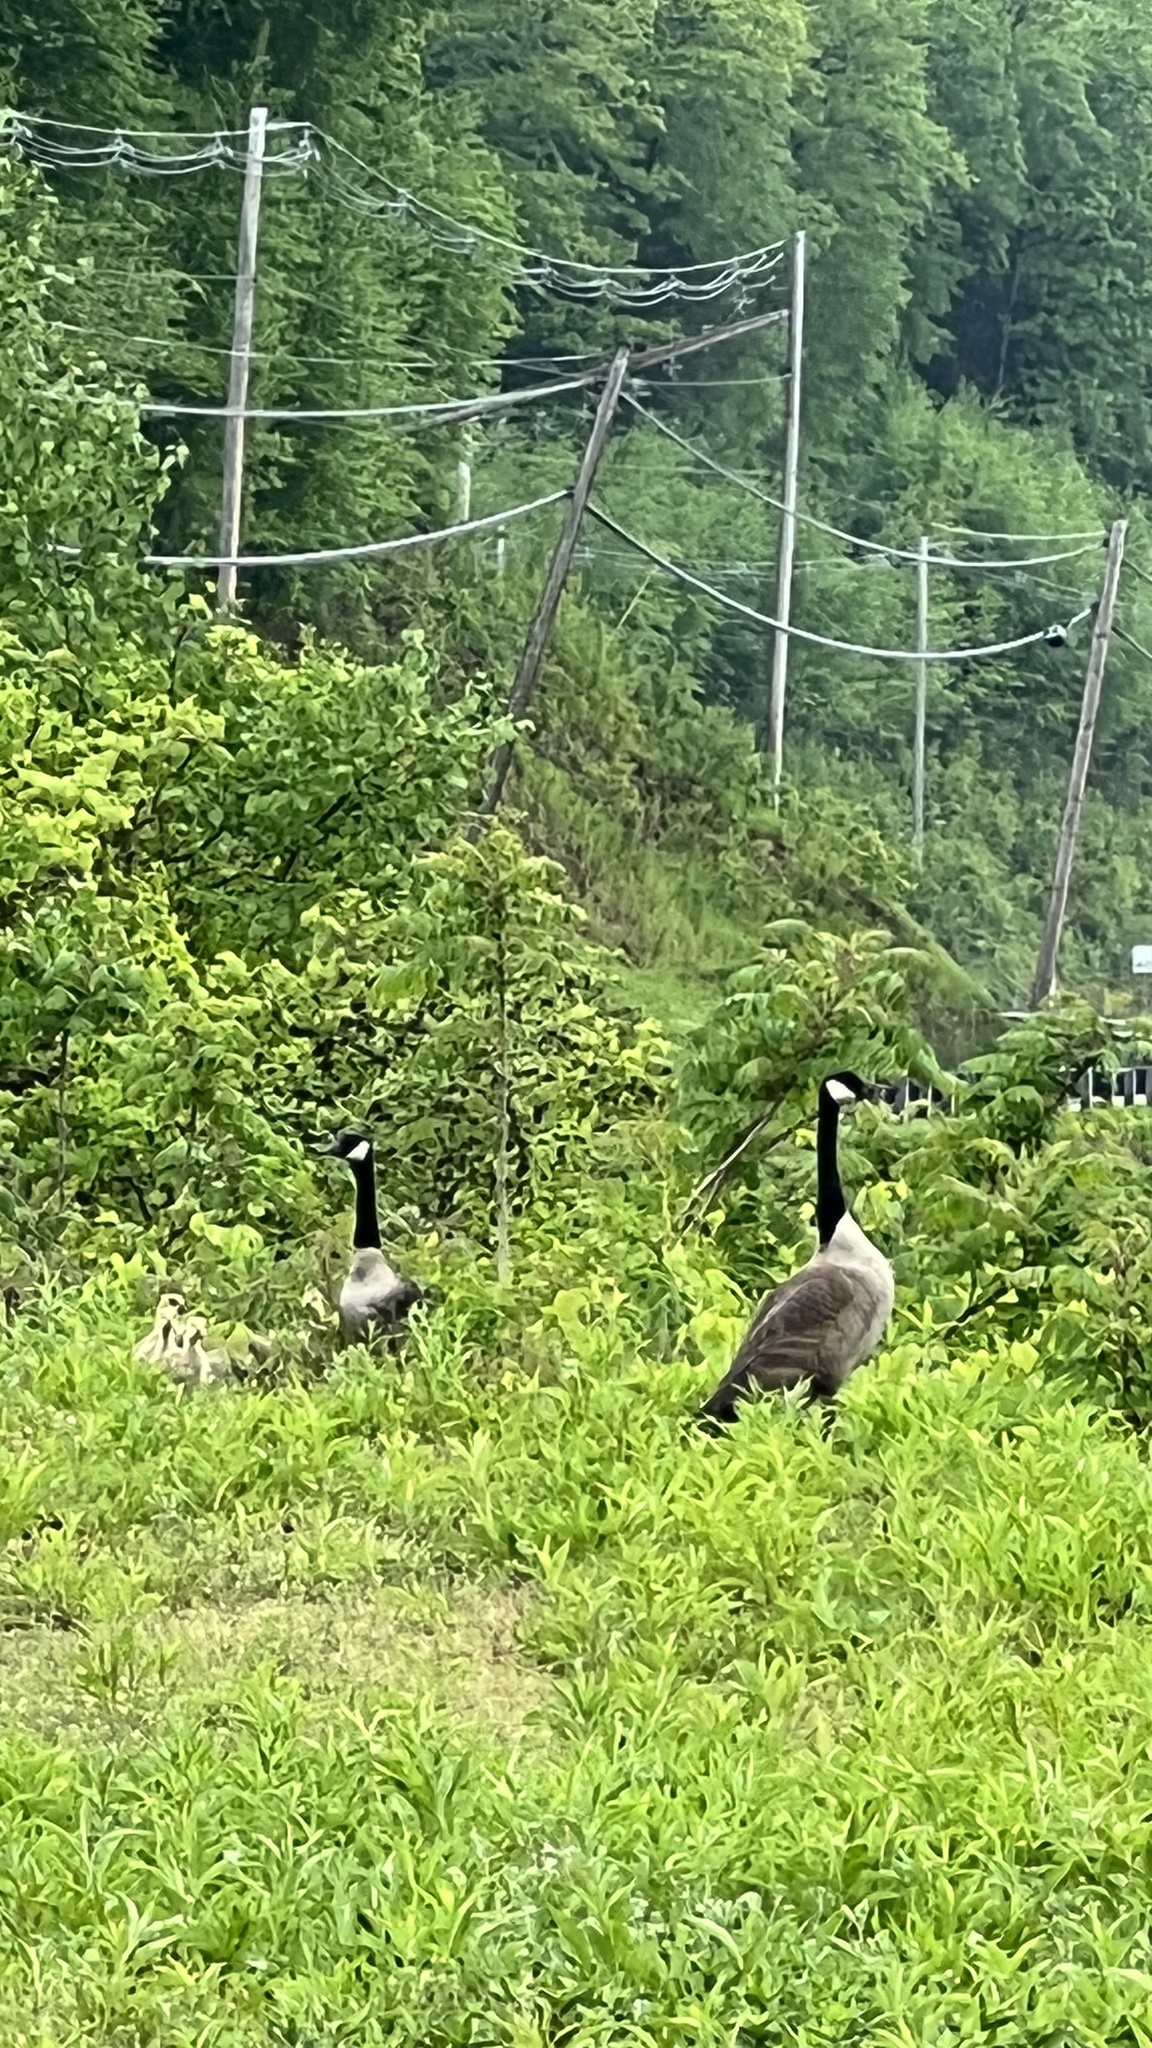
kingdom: Animalia
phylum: Chordata
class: Aves
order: Anseriformes
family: Anatidae
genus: Branta
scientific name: Branta canadensis
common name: Canada goose
